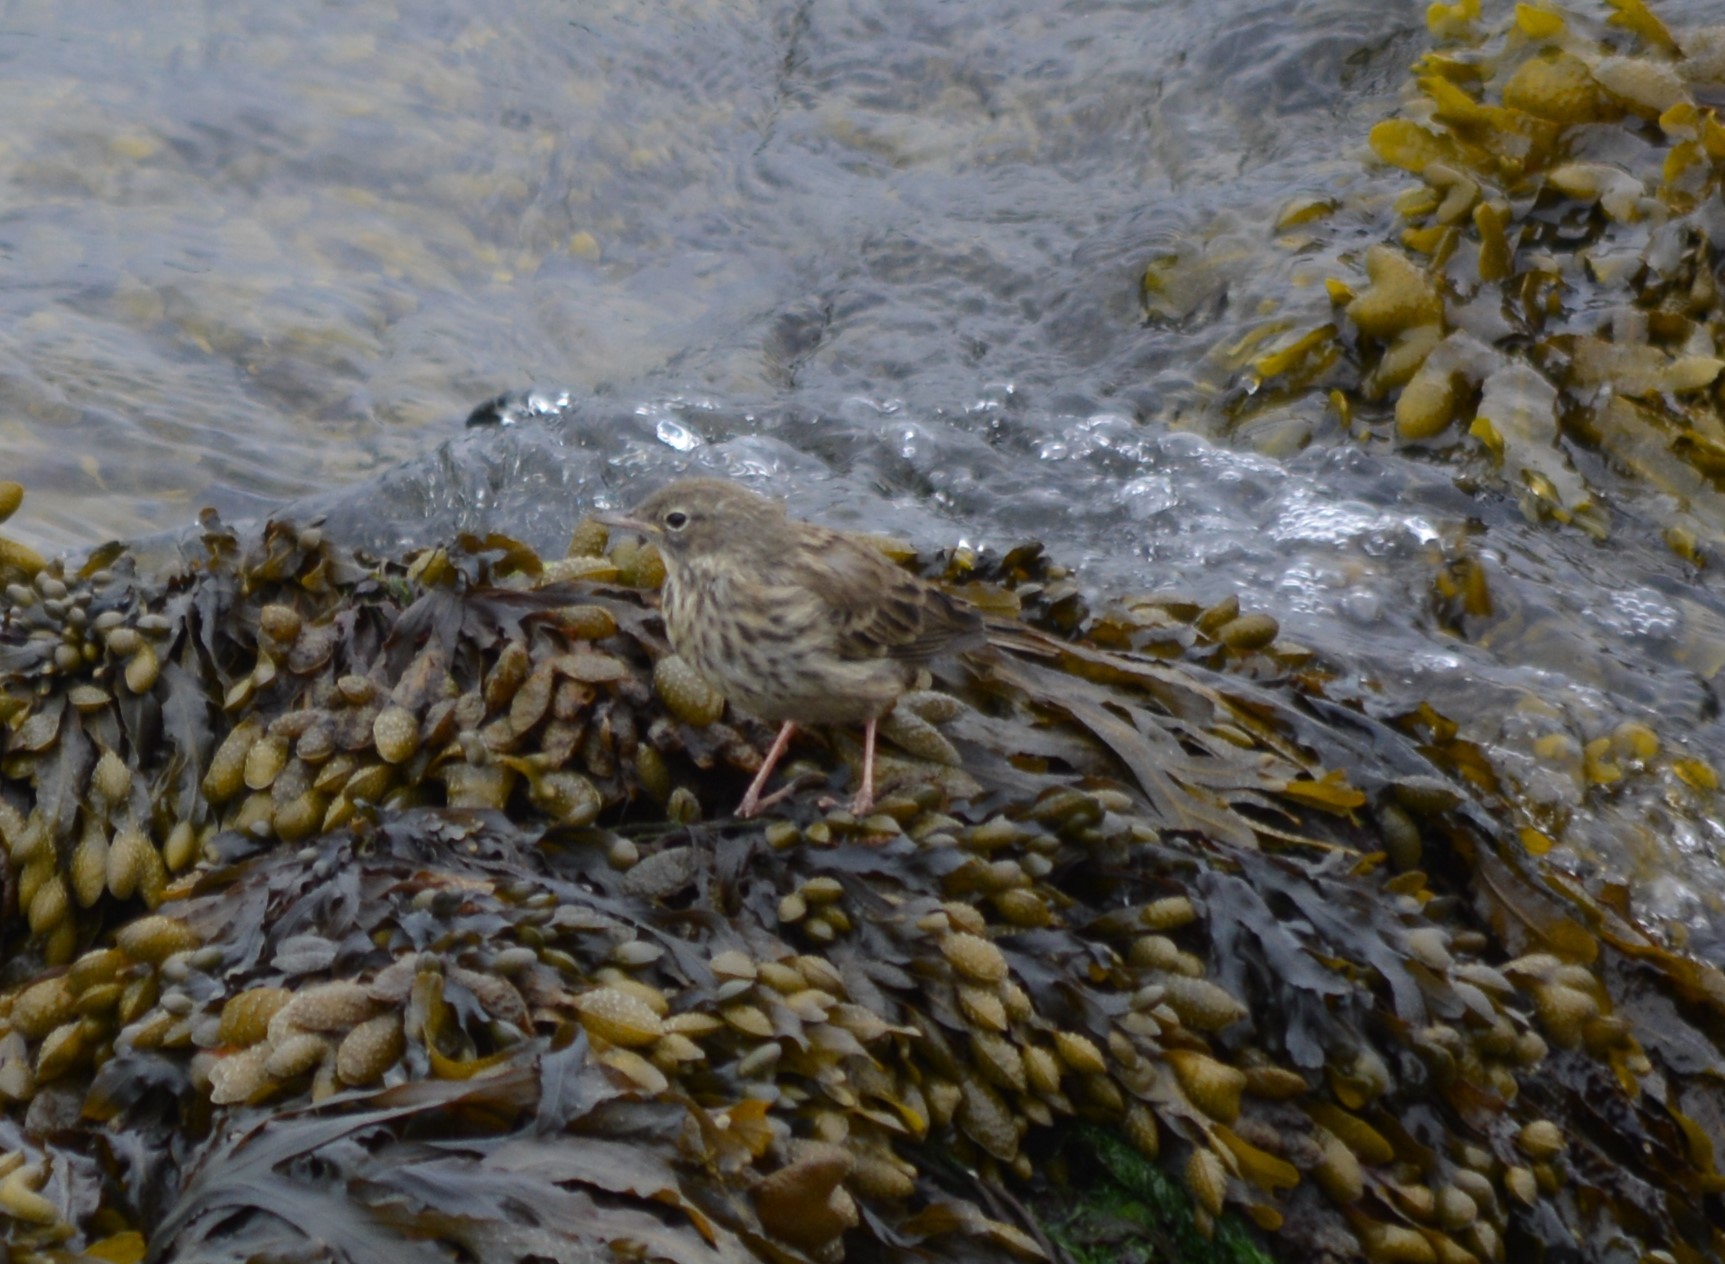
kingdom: Animalia
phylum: Chordata
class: Aves
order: Passeriformes
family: Motacillidae
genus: Anthus
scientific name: Anthus petrosus
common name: Eurasian rock pipit
